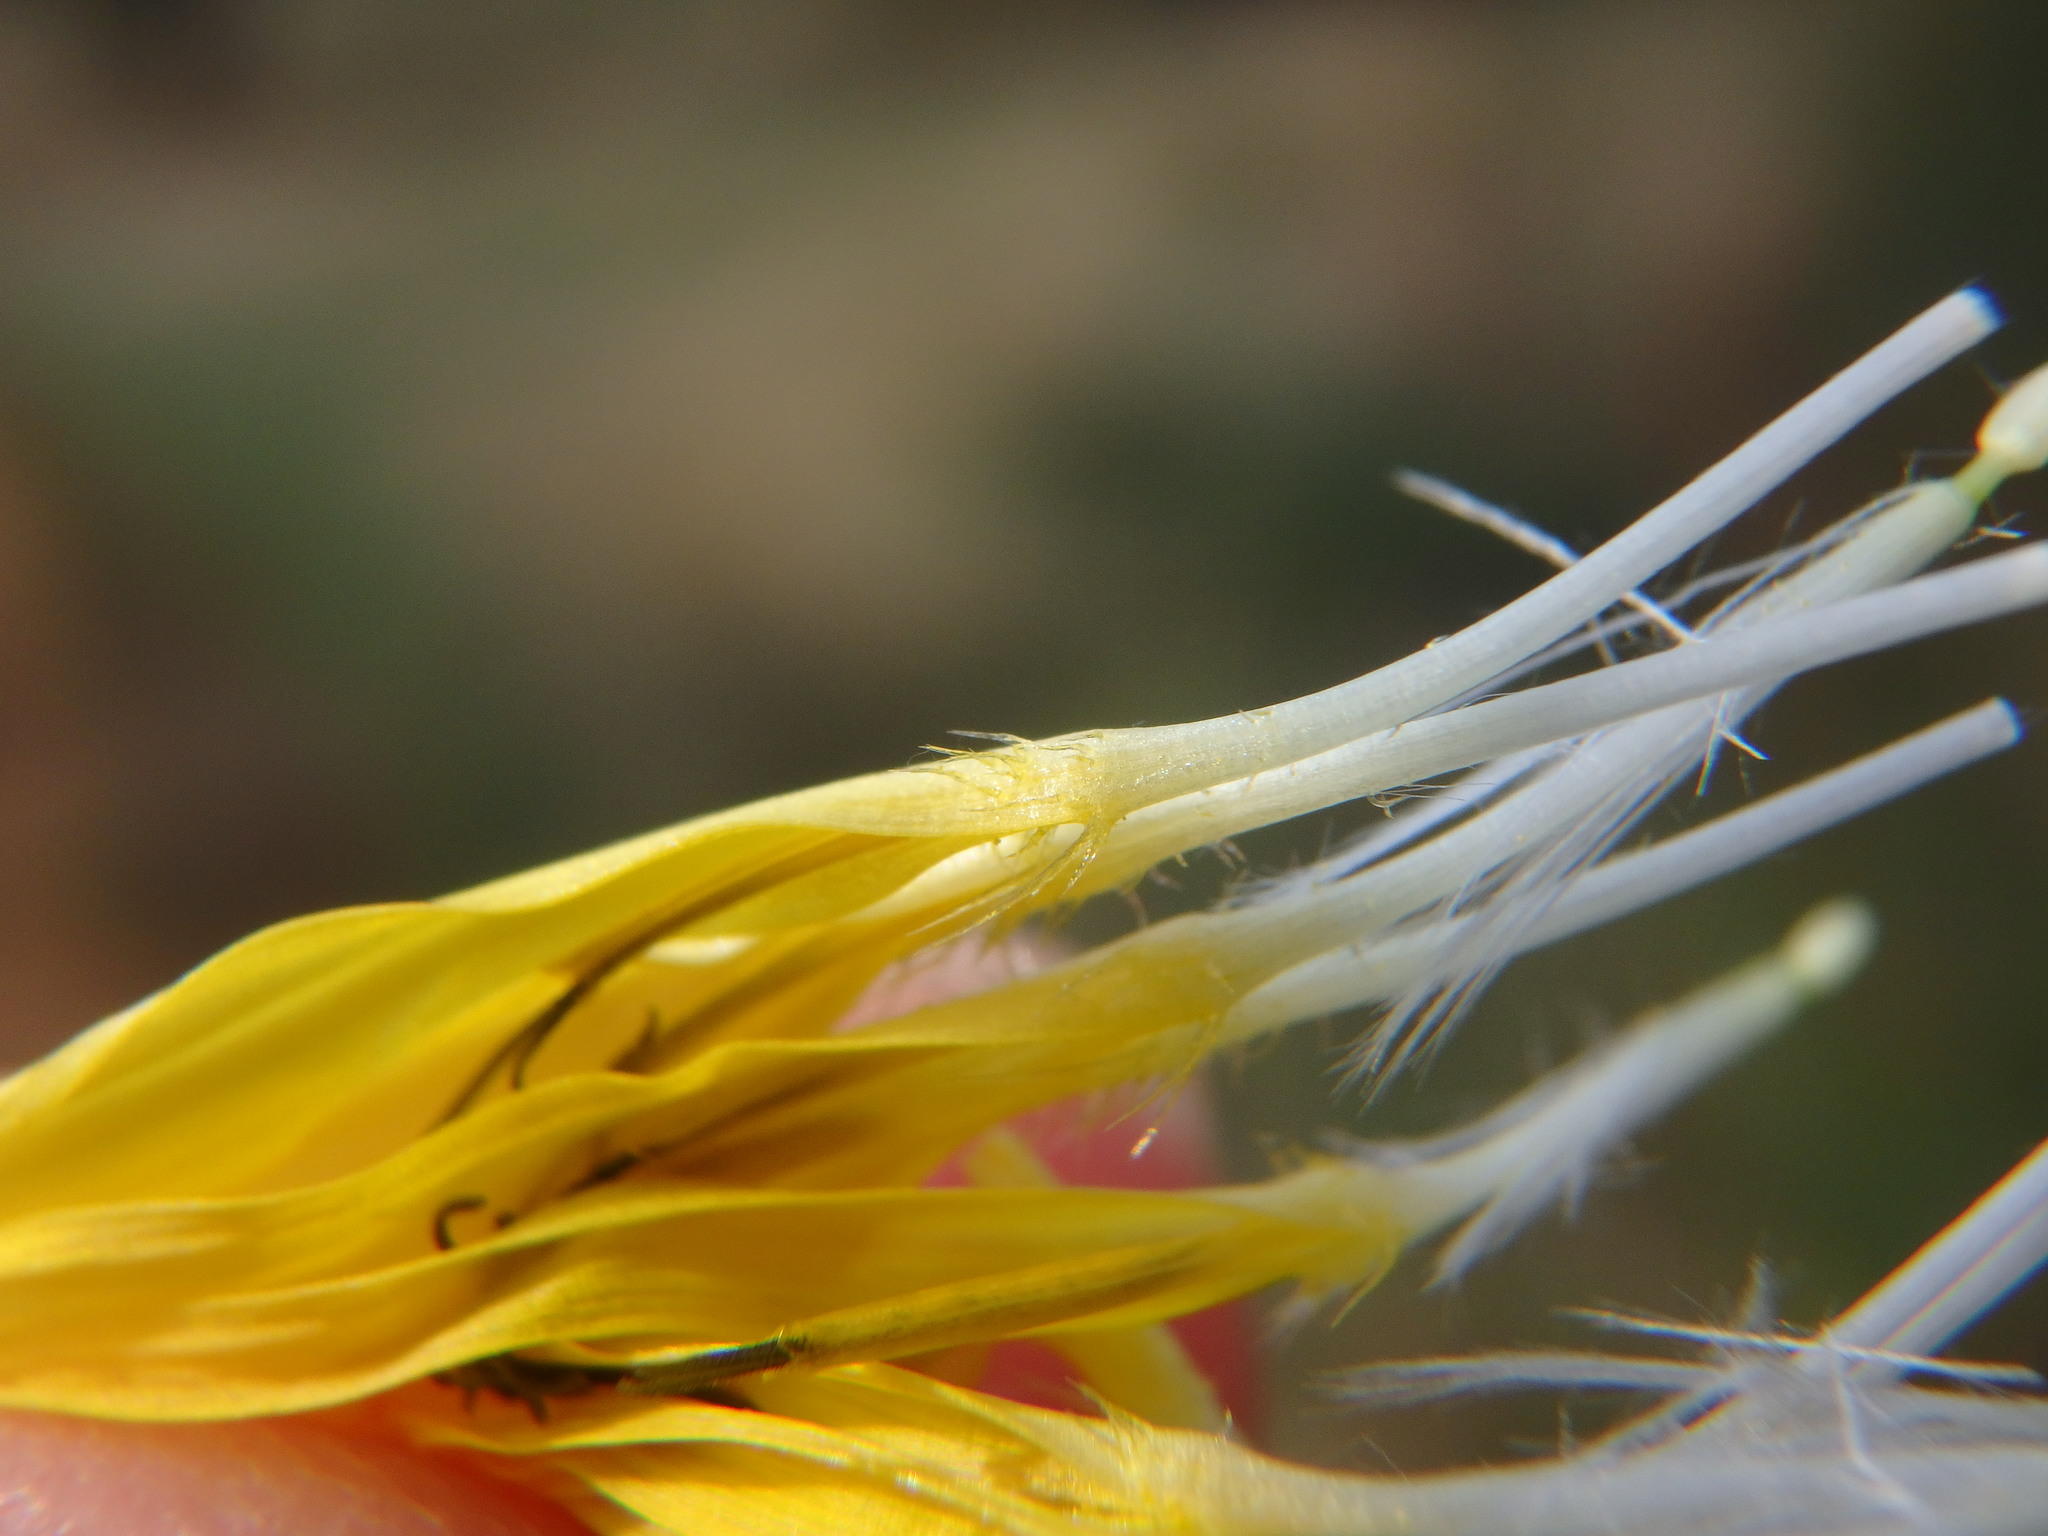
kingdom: Plantae
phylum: Tracheophyta
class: Magnoliopsida
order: Asterales
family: Asteraceae
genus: Helminthotheca
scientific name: Helminthotheca echioides
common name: Ox-tongue
